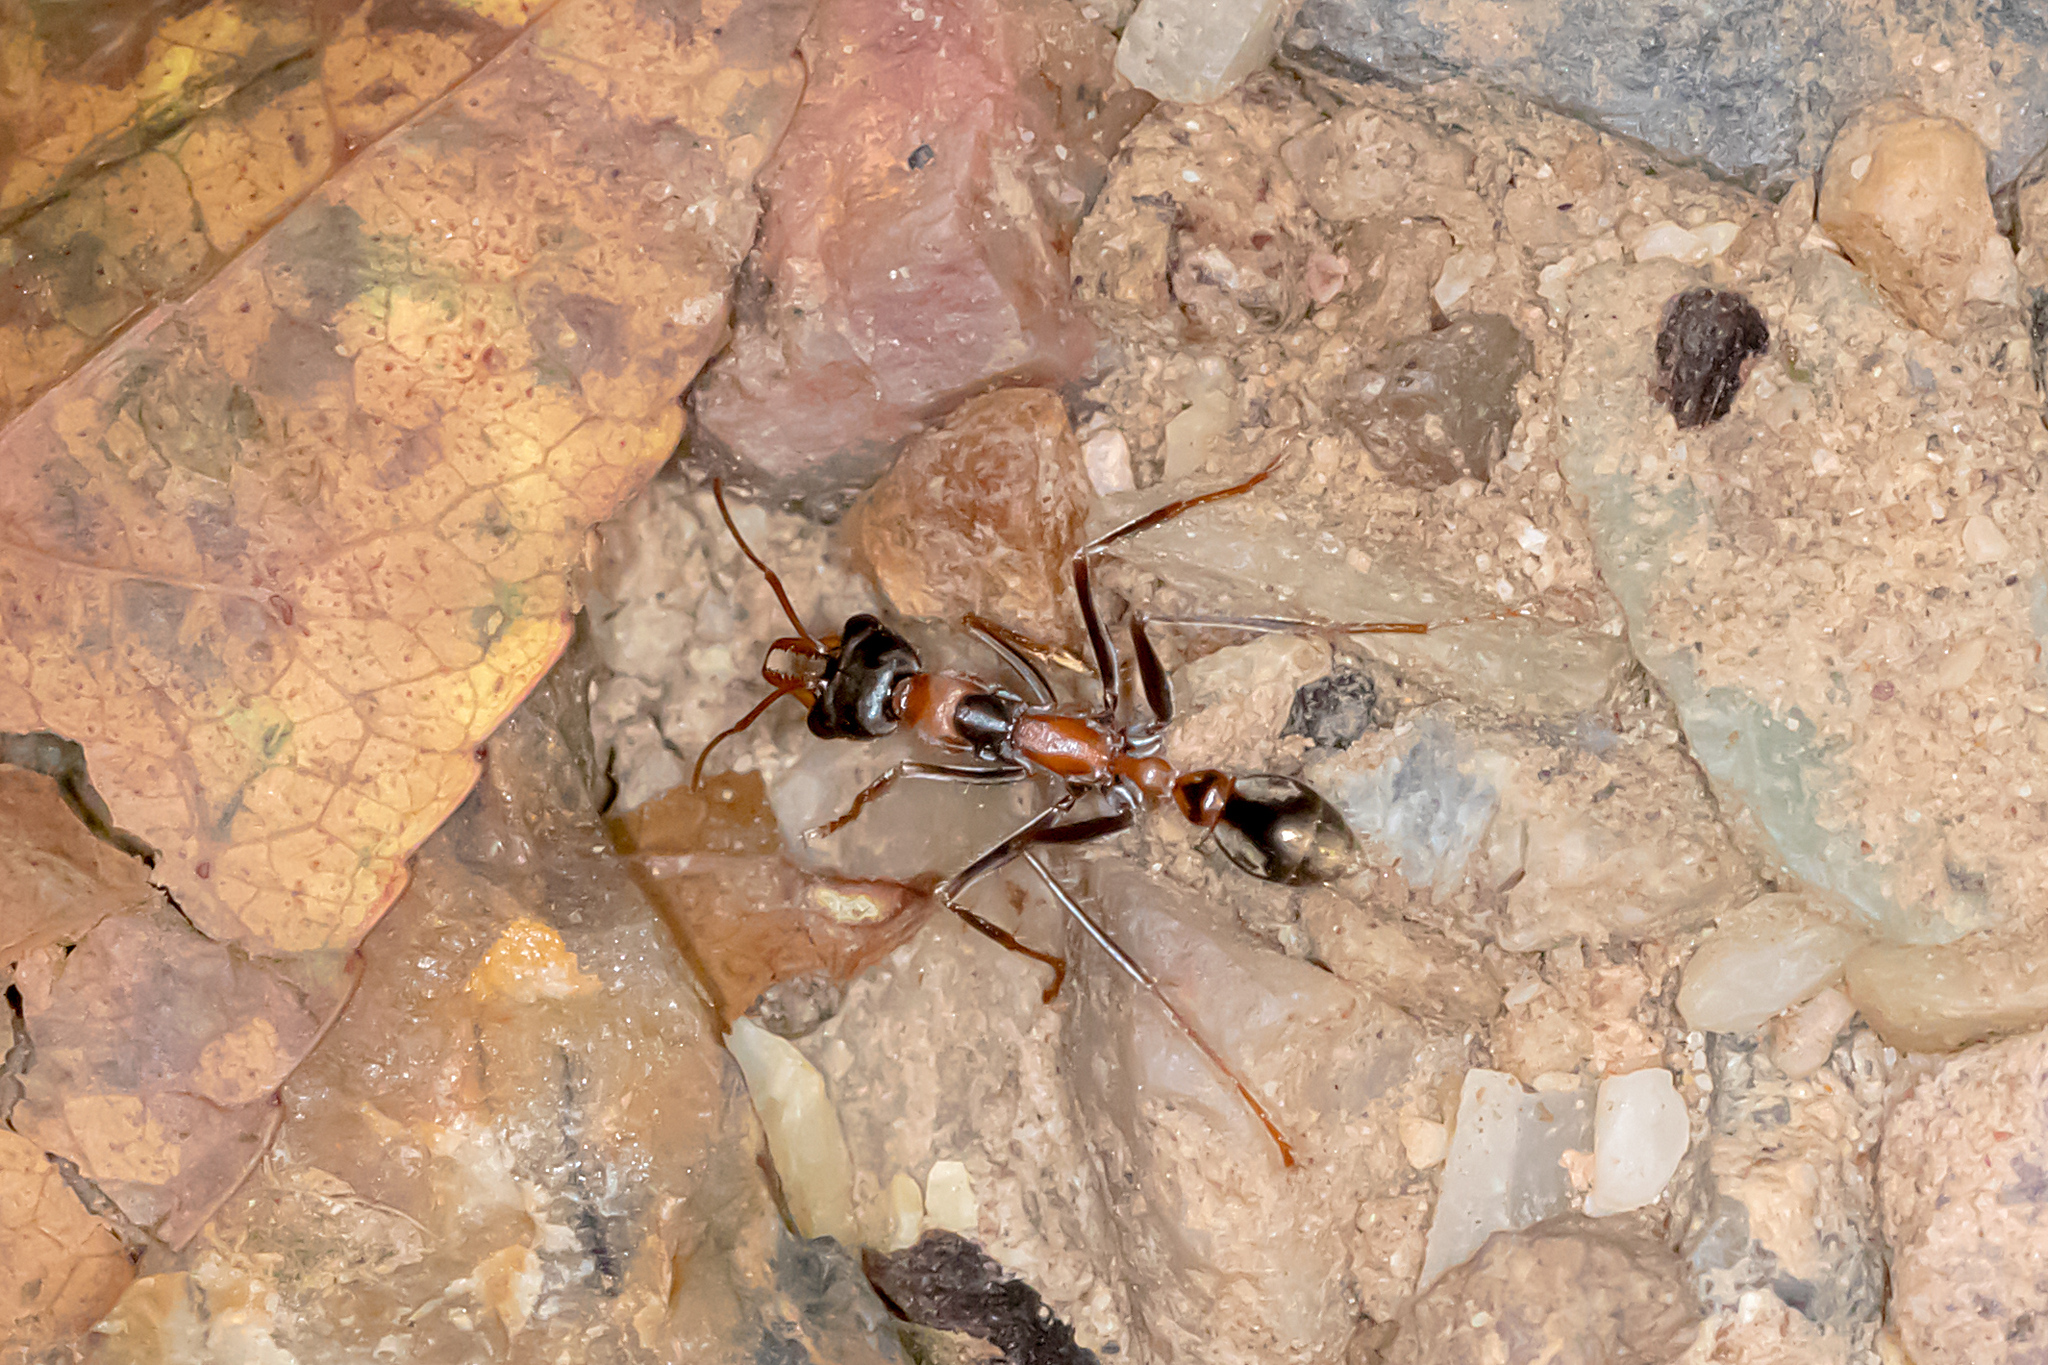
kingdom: Animalia
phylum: Arthropoda
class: Insecta
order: Hymenoptera
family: Formicidae
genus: Myrmecia
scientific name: Myrmecia nigrocincta
